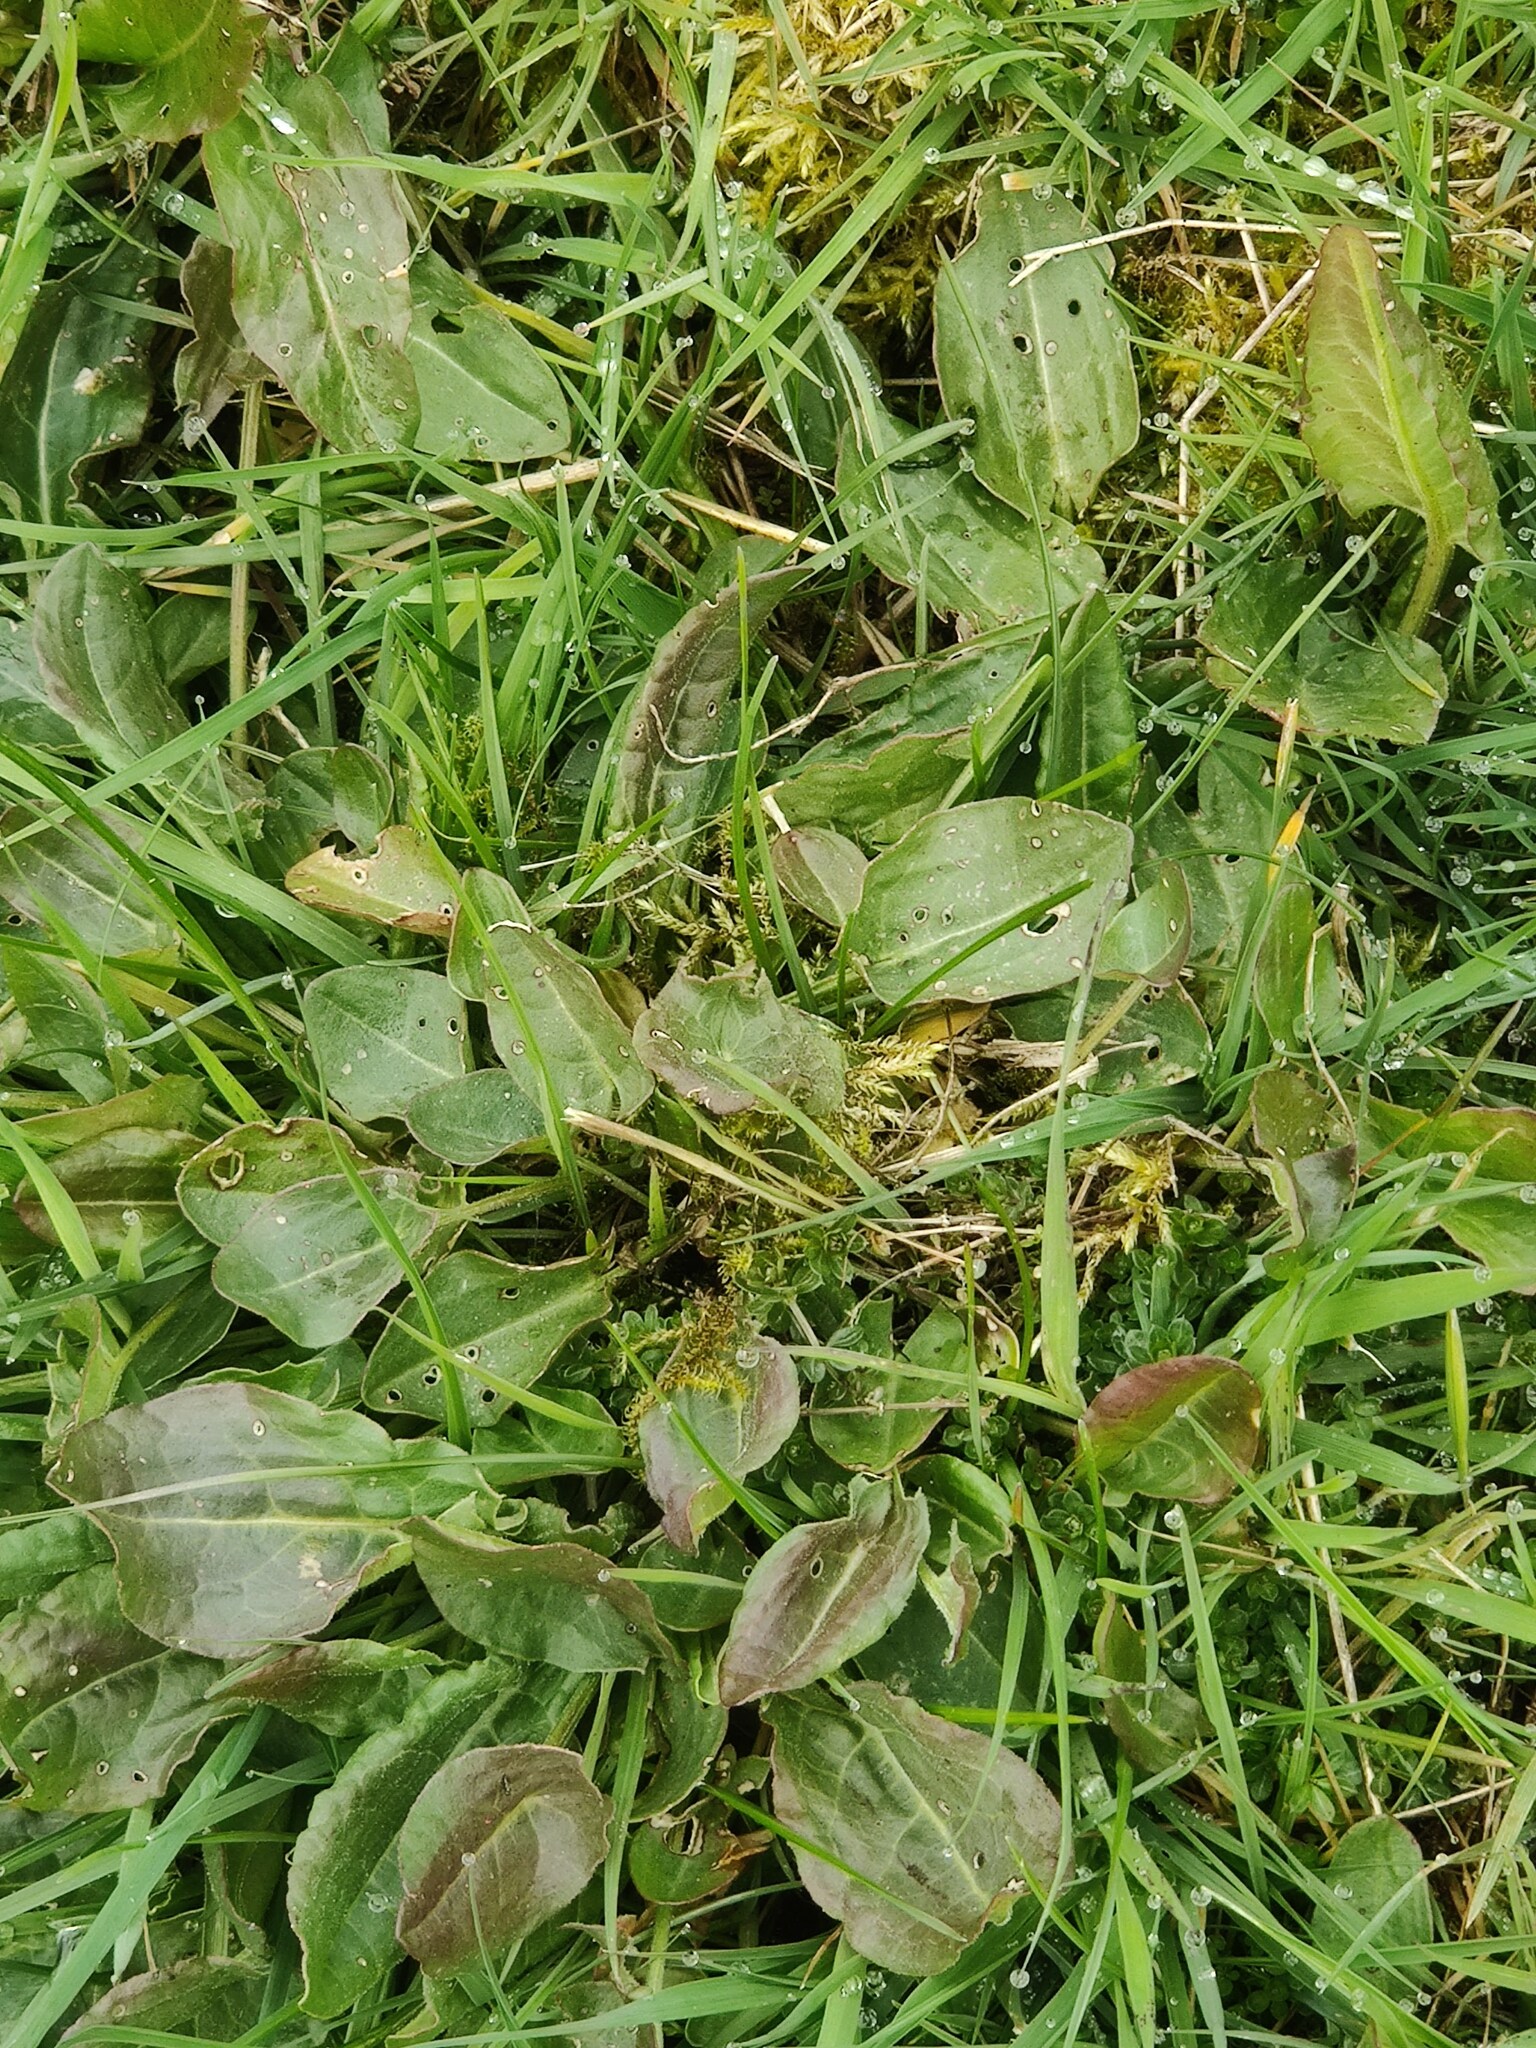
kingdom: Plantae
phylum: Tracheophyta
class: Magnoliopsida
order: Caryophyllales
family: Polygonaceae
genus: Rumex
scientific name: Rumex acetosa
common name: Garden sorrel
